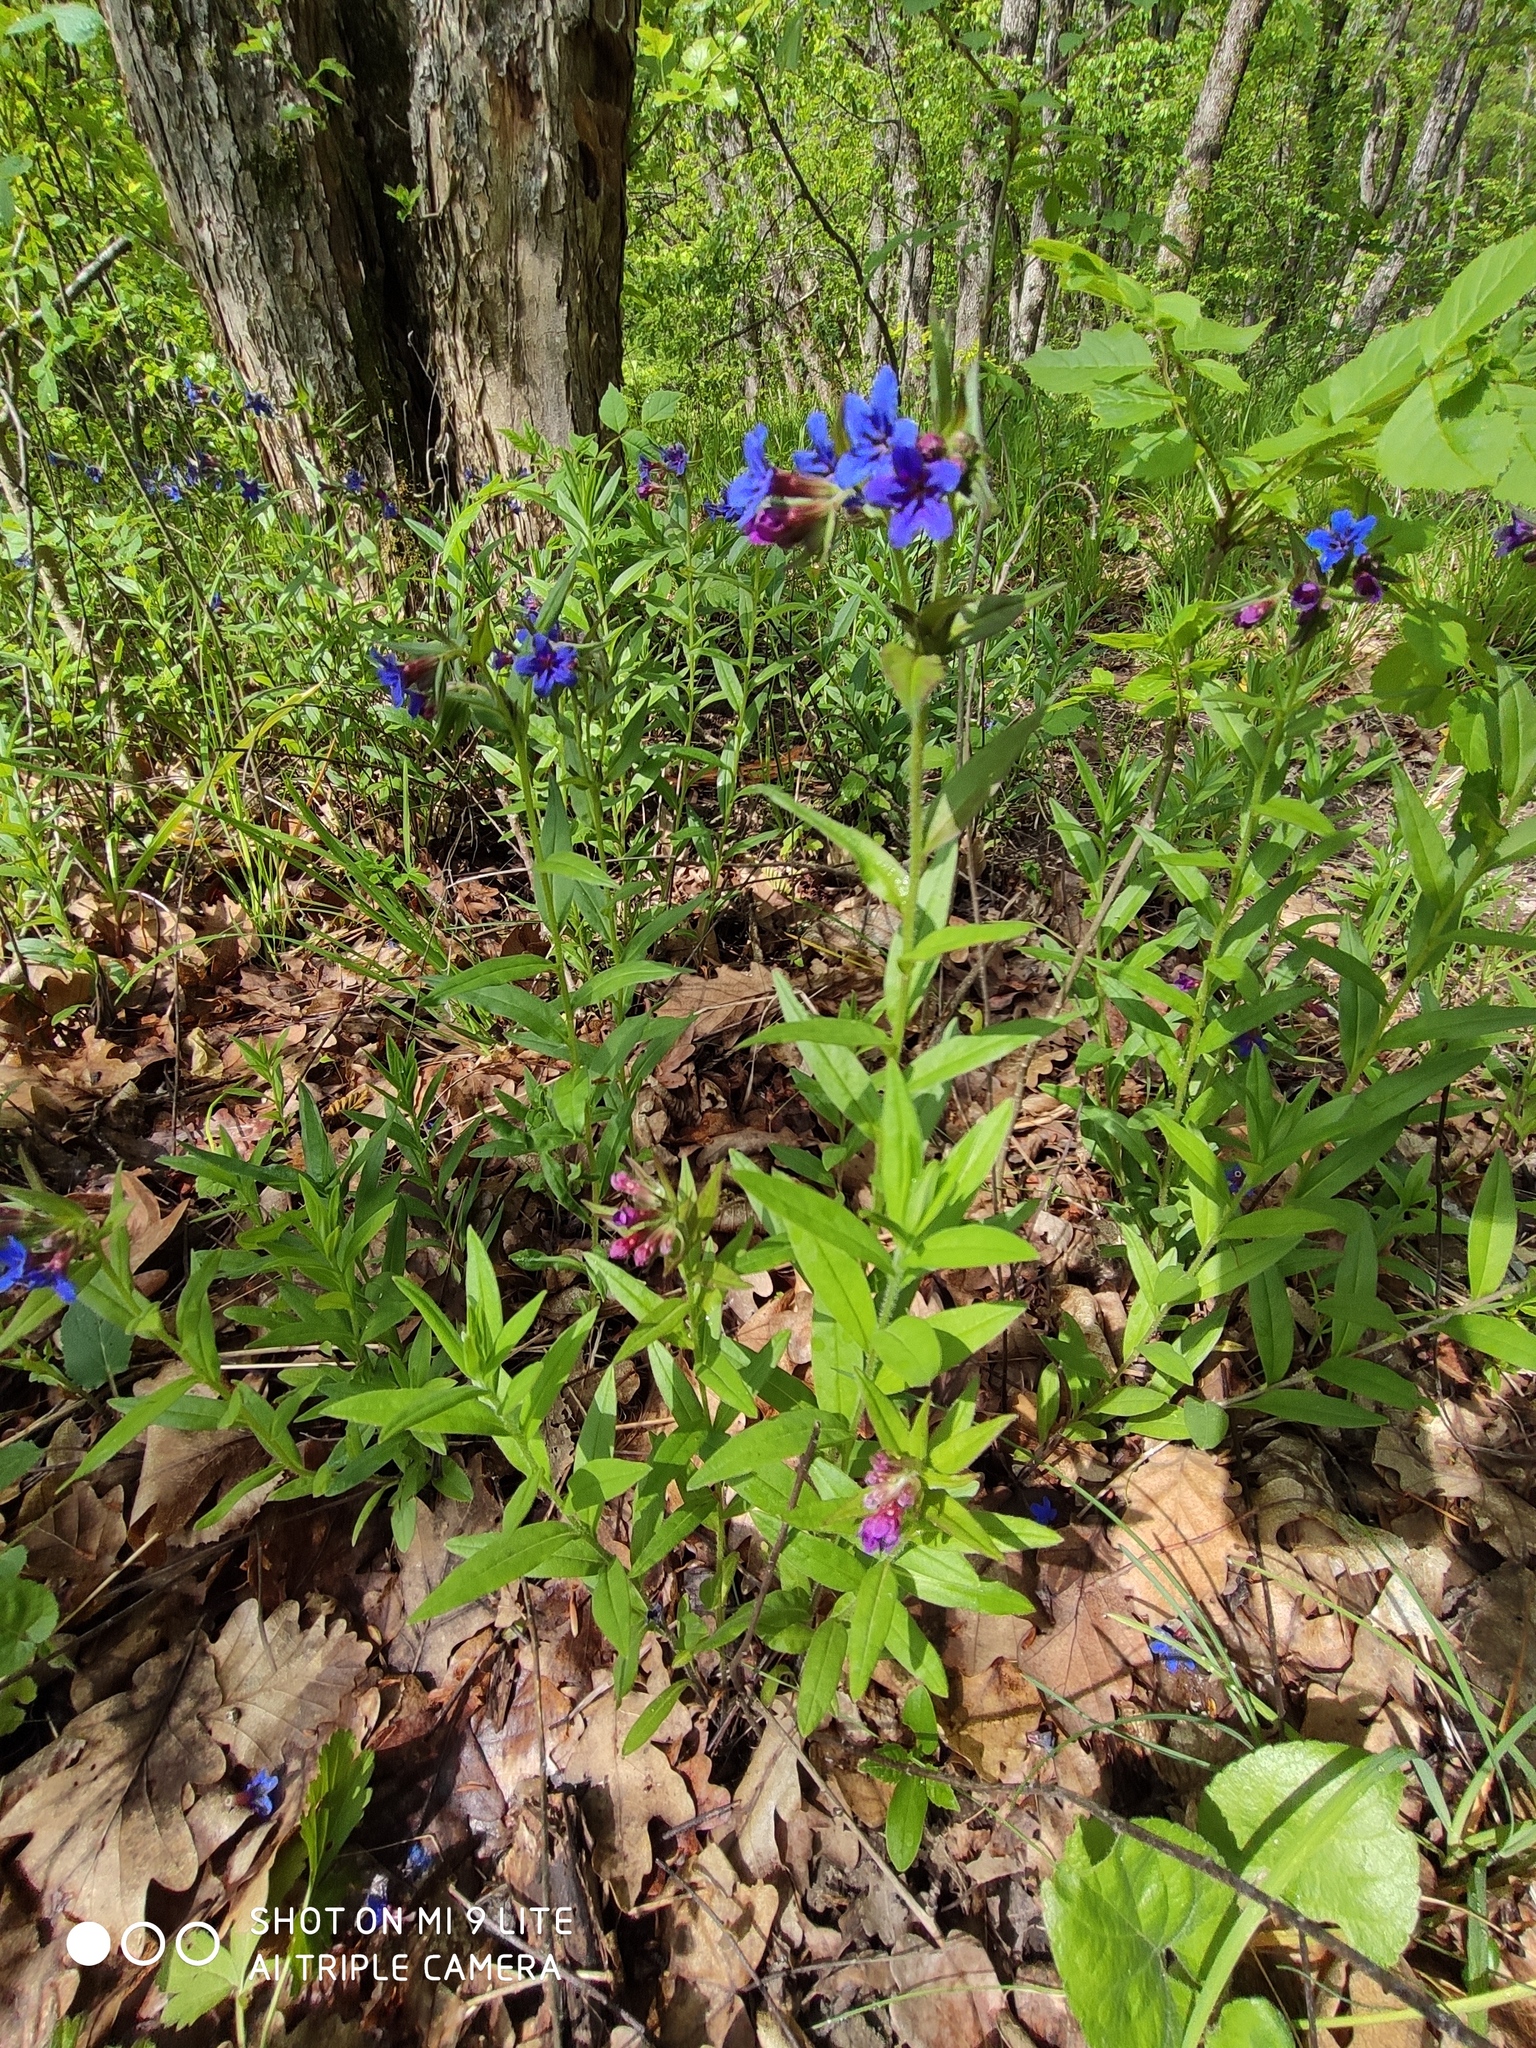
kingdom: Plantae
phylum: Tracheophyta
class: Magnoliopsida
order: Boraginales
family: Boraginaceae
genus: Aegonychon
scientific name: Aegonychon purpurocaeruleum
